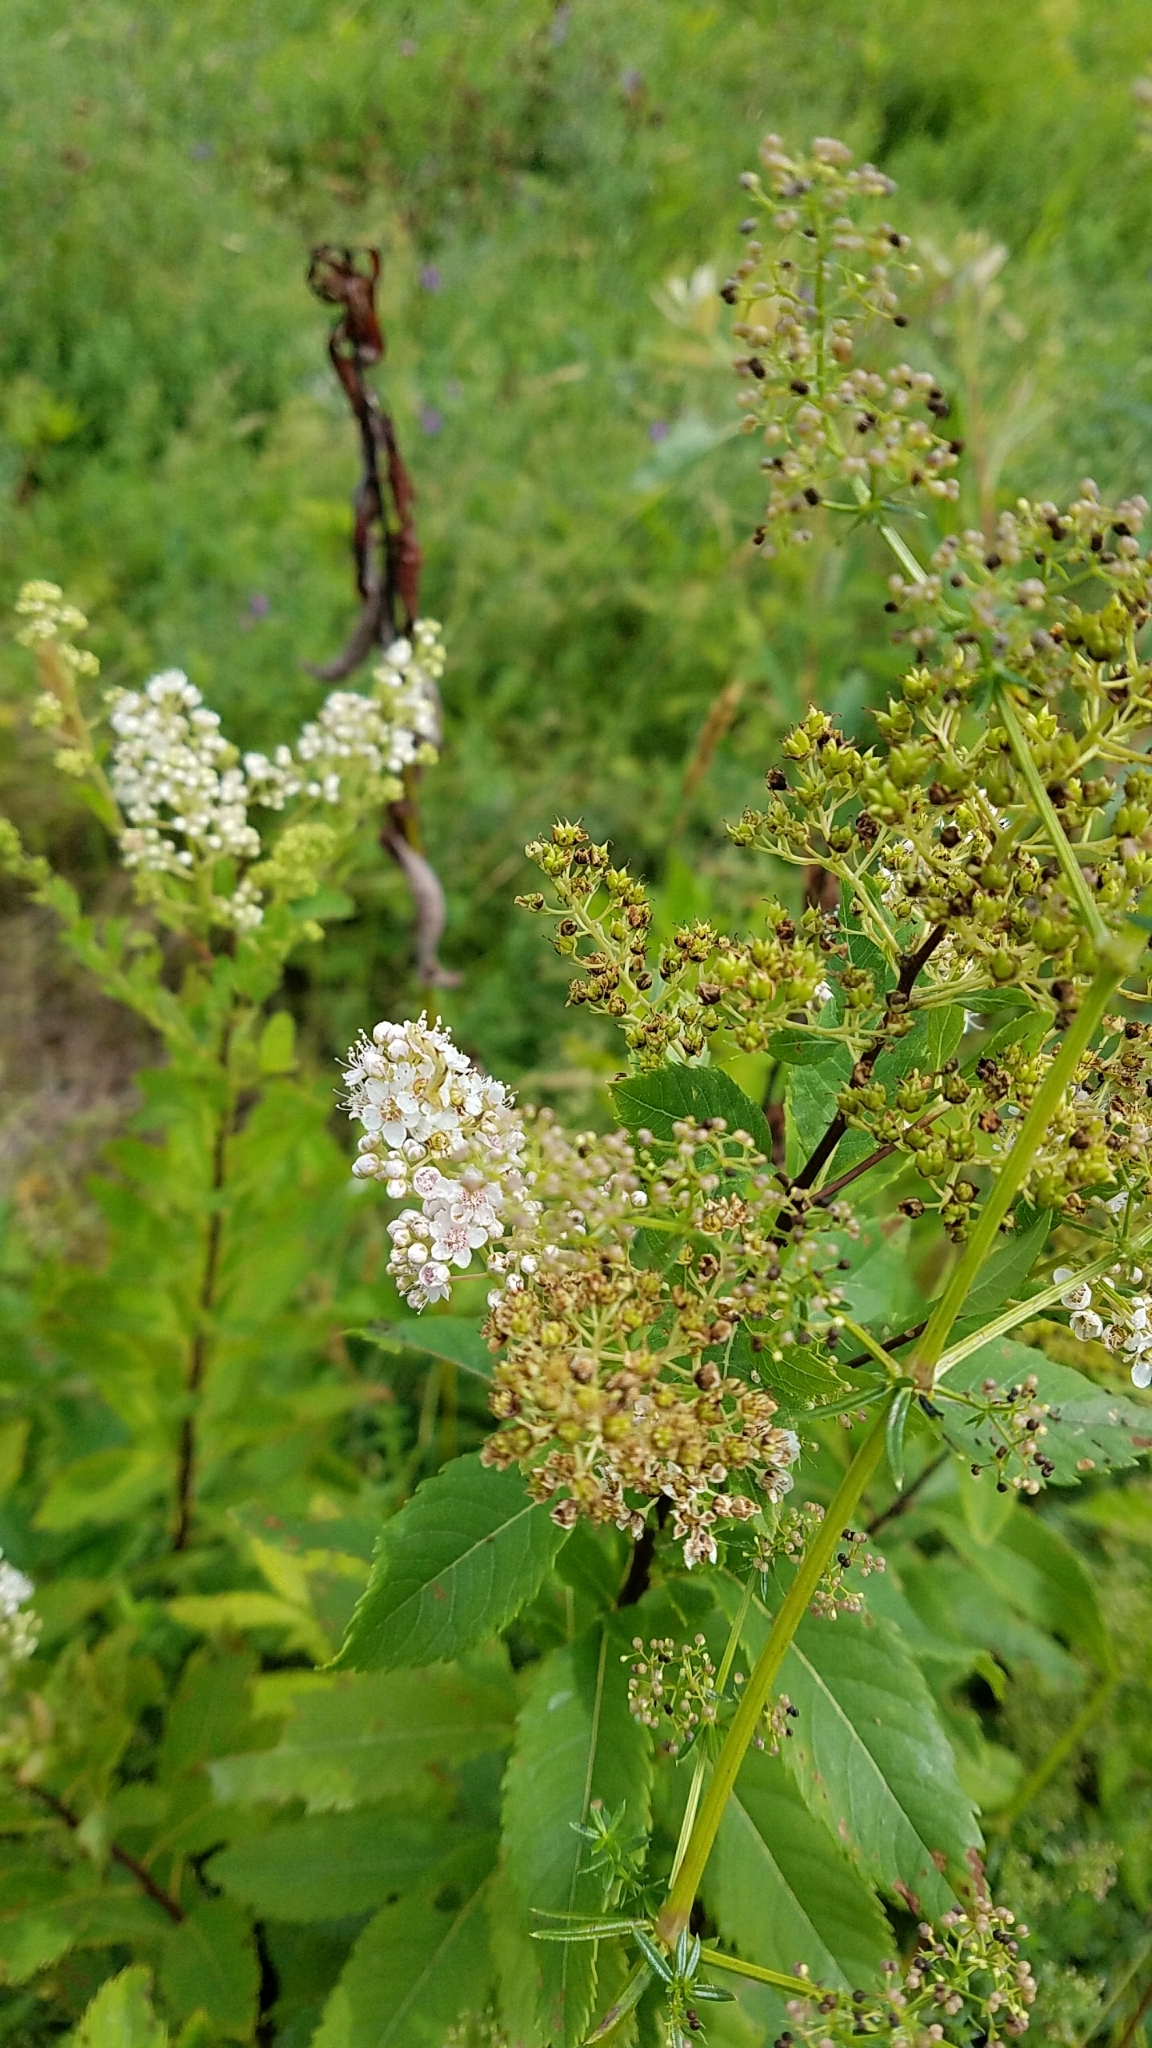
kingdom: Plantae
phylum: Tracheophyta
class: Magnoliopsida
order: Rosales
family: Rosaceae
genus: Spiraea
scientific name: Spiraea alba
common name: Pale bridewort
